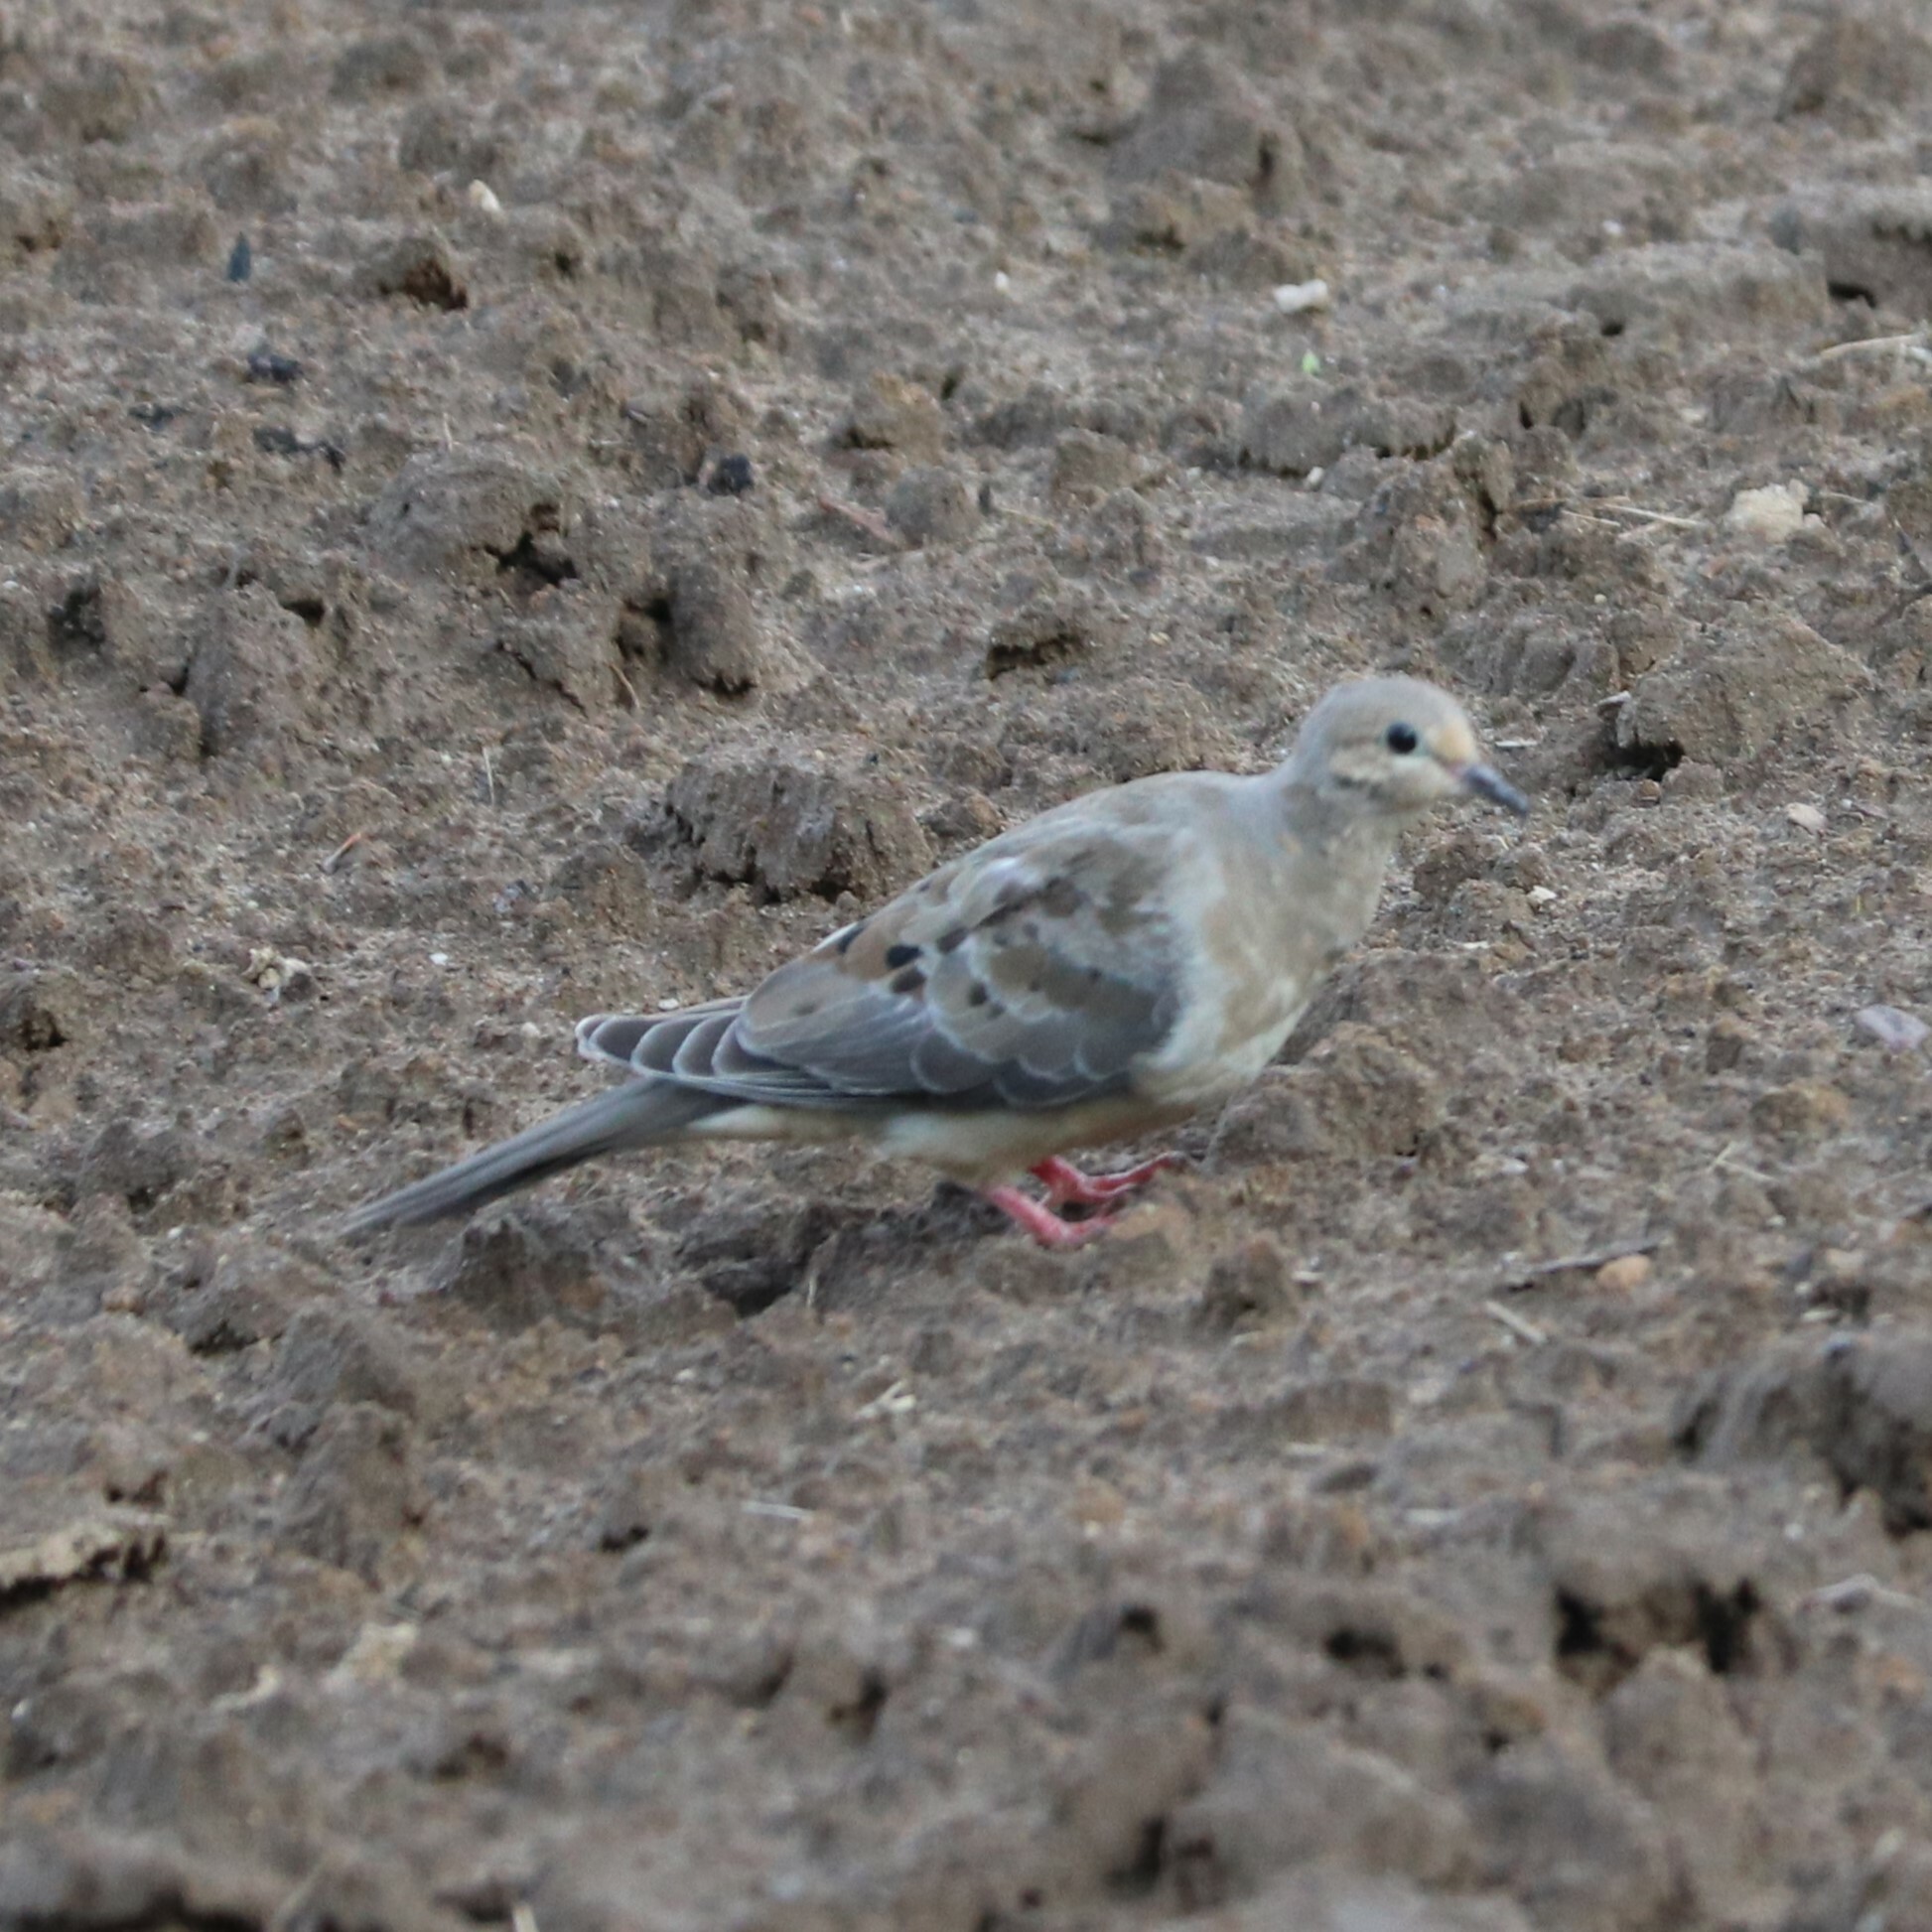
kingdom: Animalia
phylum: Chordata
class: Aves
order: Columbiformes
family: Columbidae
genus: Zenaida
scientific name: Zenaida macroura
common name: Mourning dove
